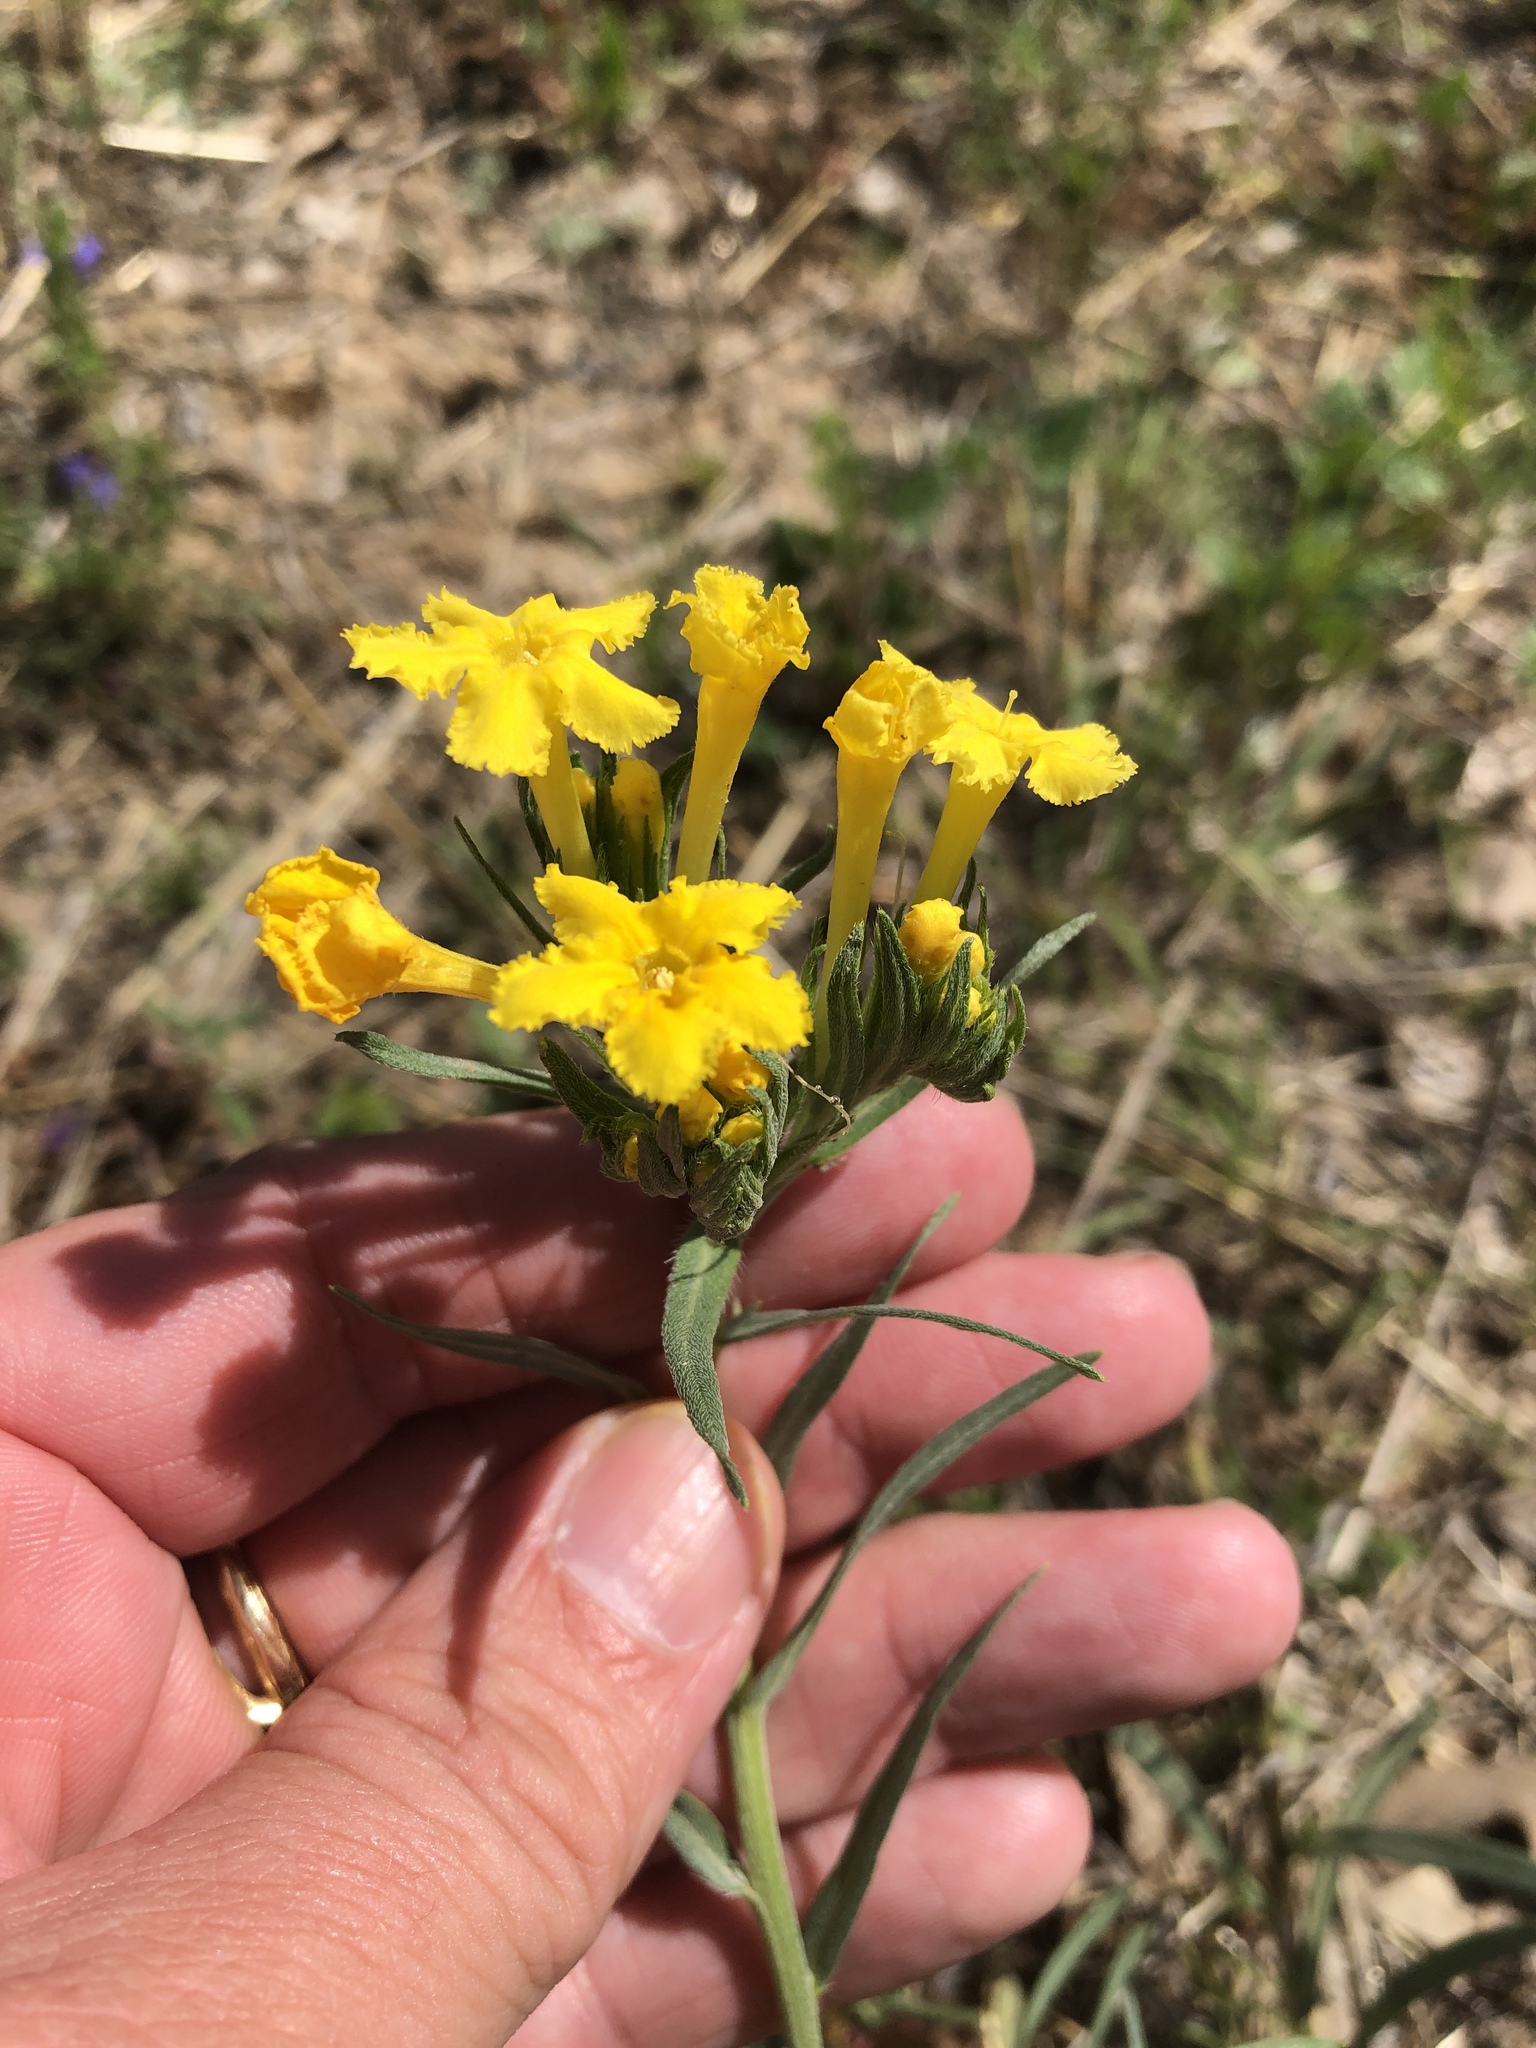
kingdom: Plantae
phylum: Tracheophyta
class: Magnoliopsida
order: Boraginales
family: Boraginaceae
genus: Lithospermum
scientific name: Lithospermum incisum
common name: Fringed gromwell
